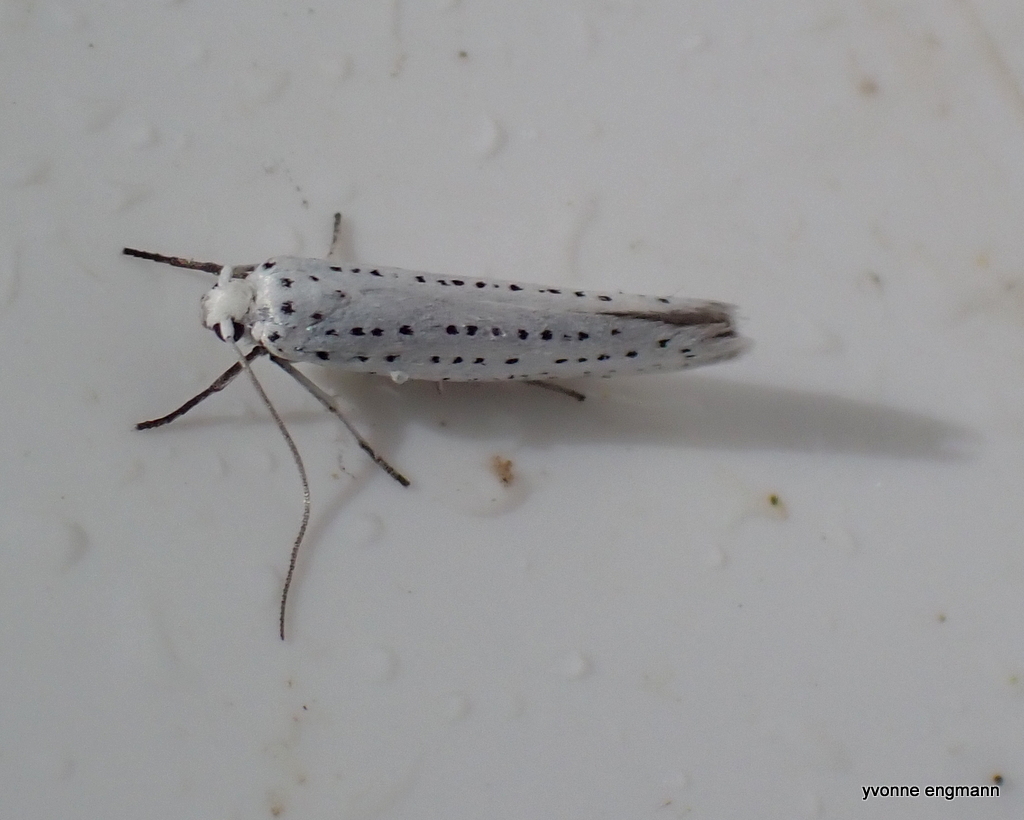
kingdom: Animalia
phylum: Arthropoda
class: Insecta
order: Lepidoptera
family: Yponomeutidae
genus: Yponomeuta
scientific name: Yponomeuta evonymella
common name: Bird-cherry ermine
